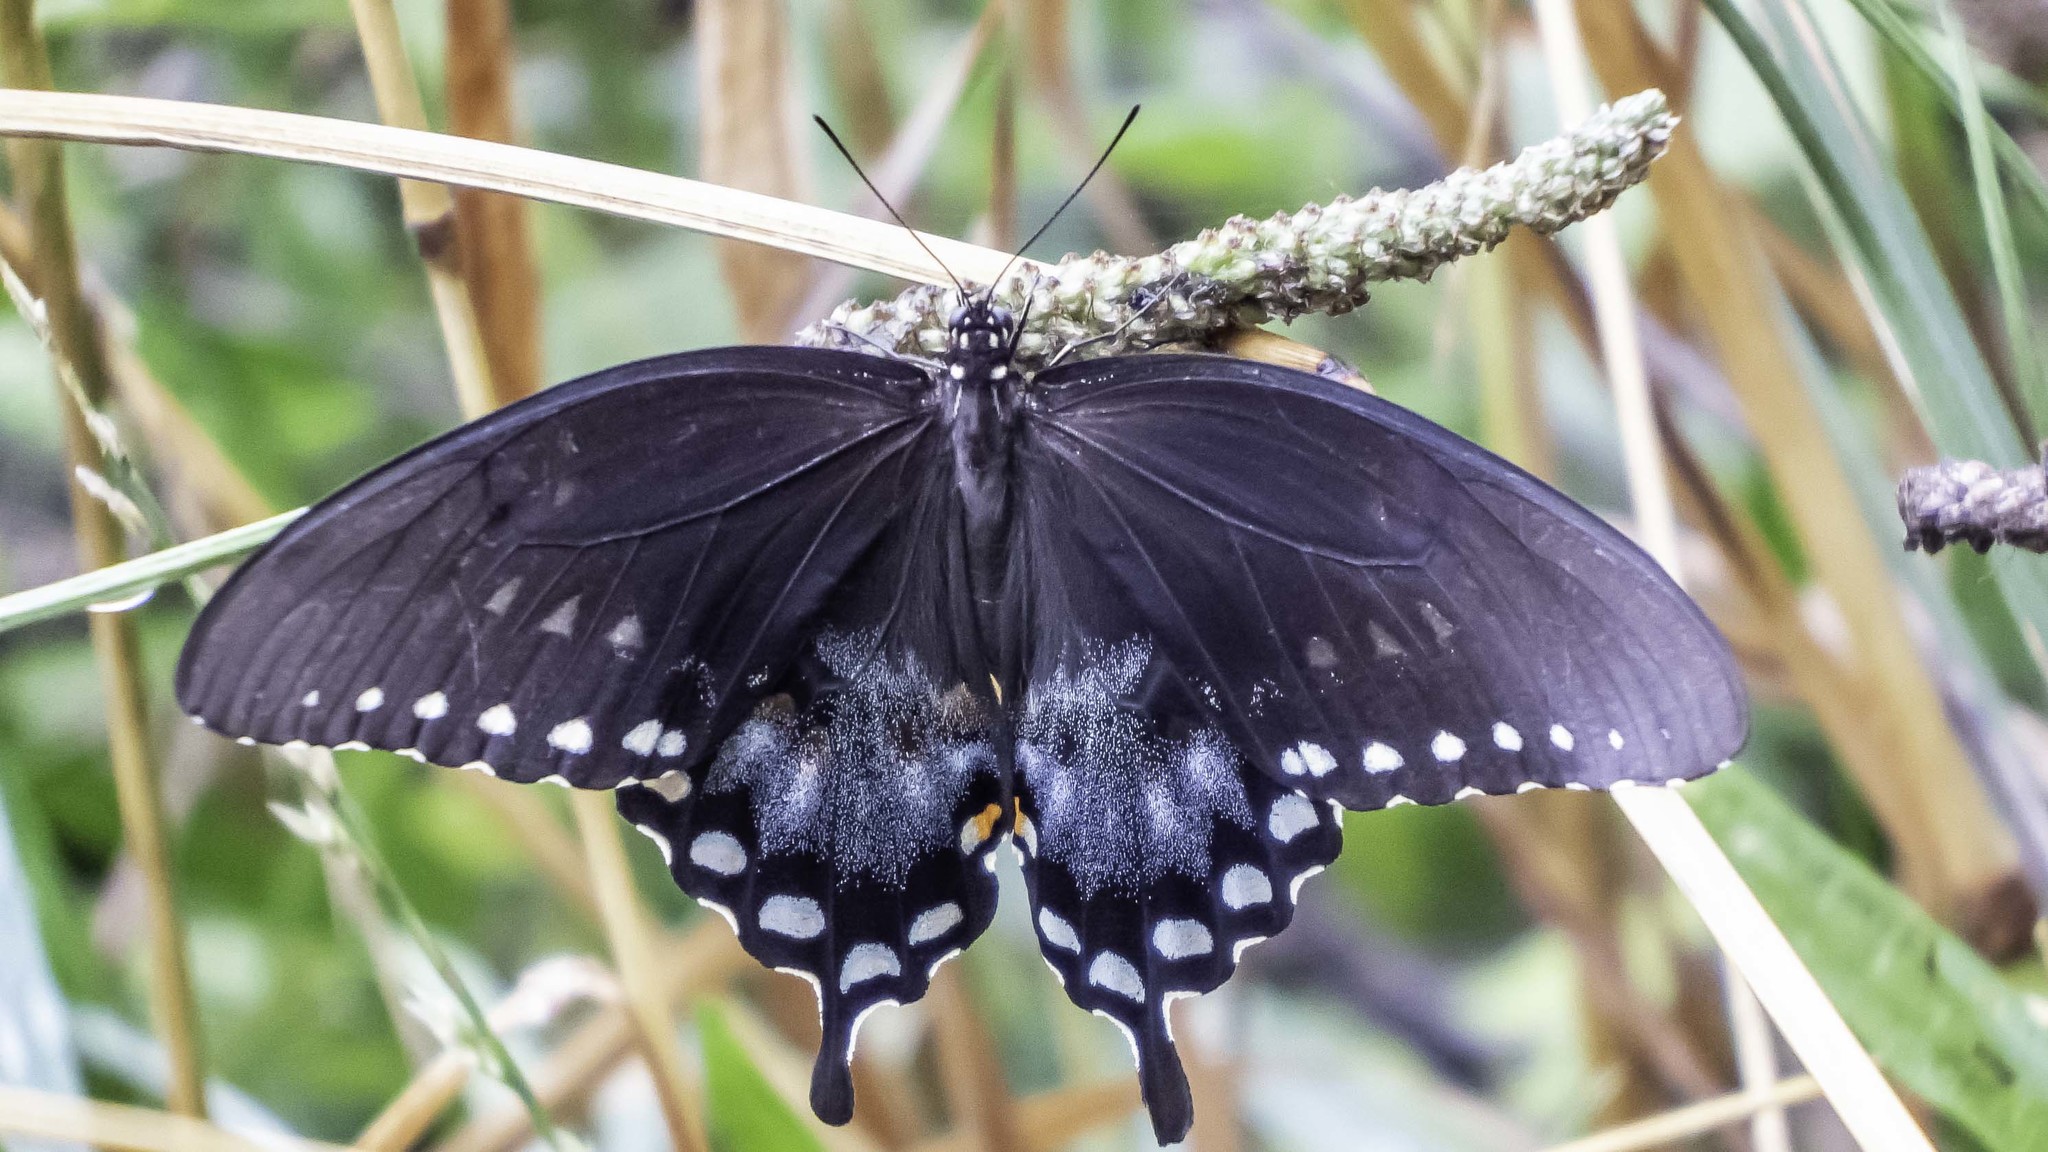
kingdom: Animalia
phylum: Arthropoda
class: Insecta
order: Lepidoptera
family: Papilionidae
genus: Papilio
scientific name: Papilio troilus
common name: Spicebush swallowtail
